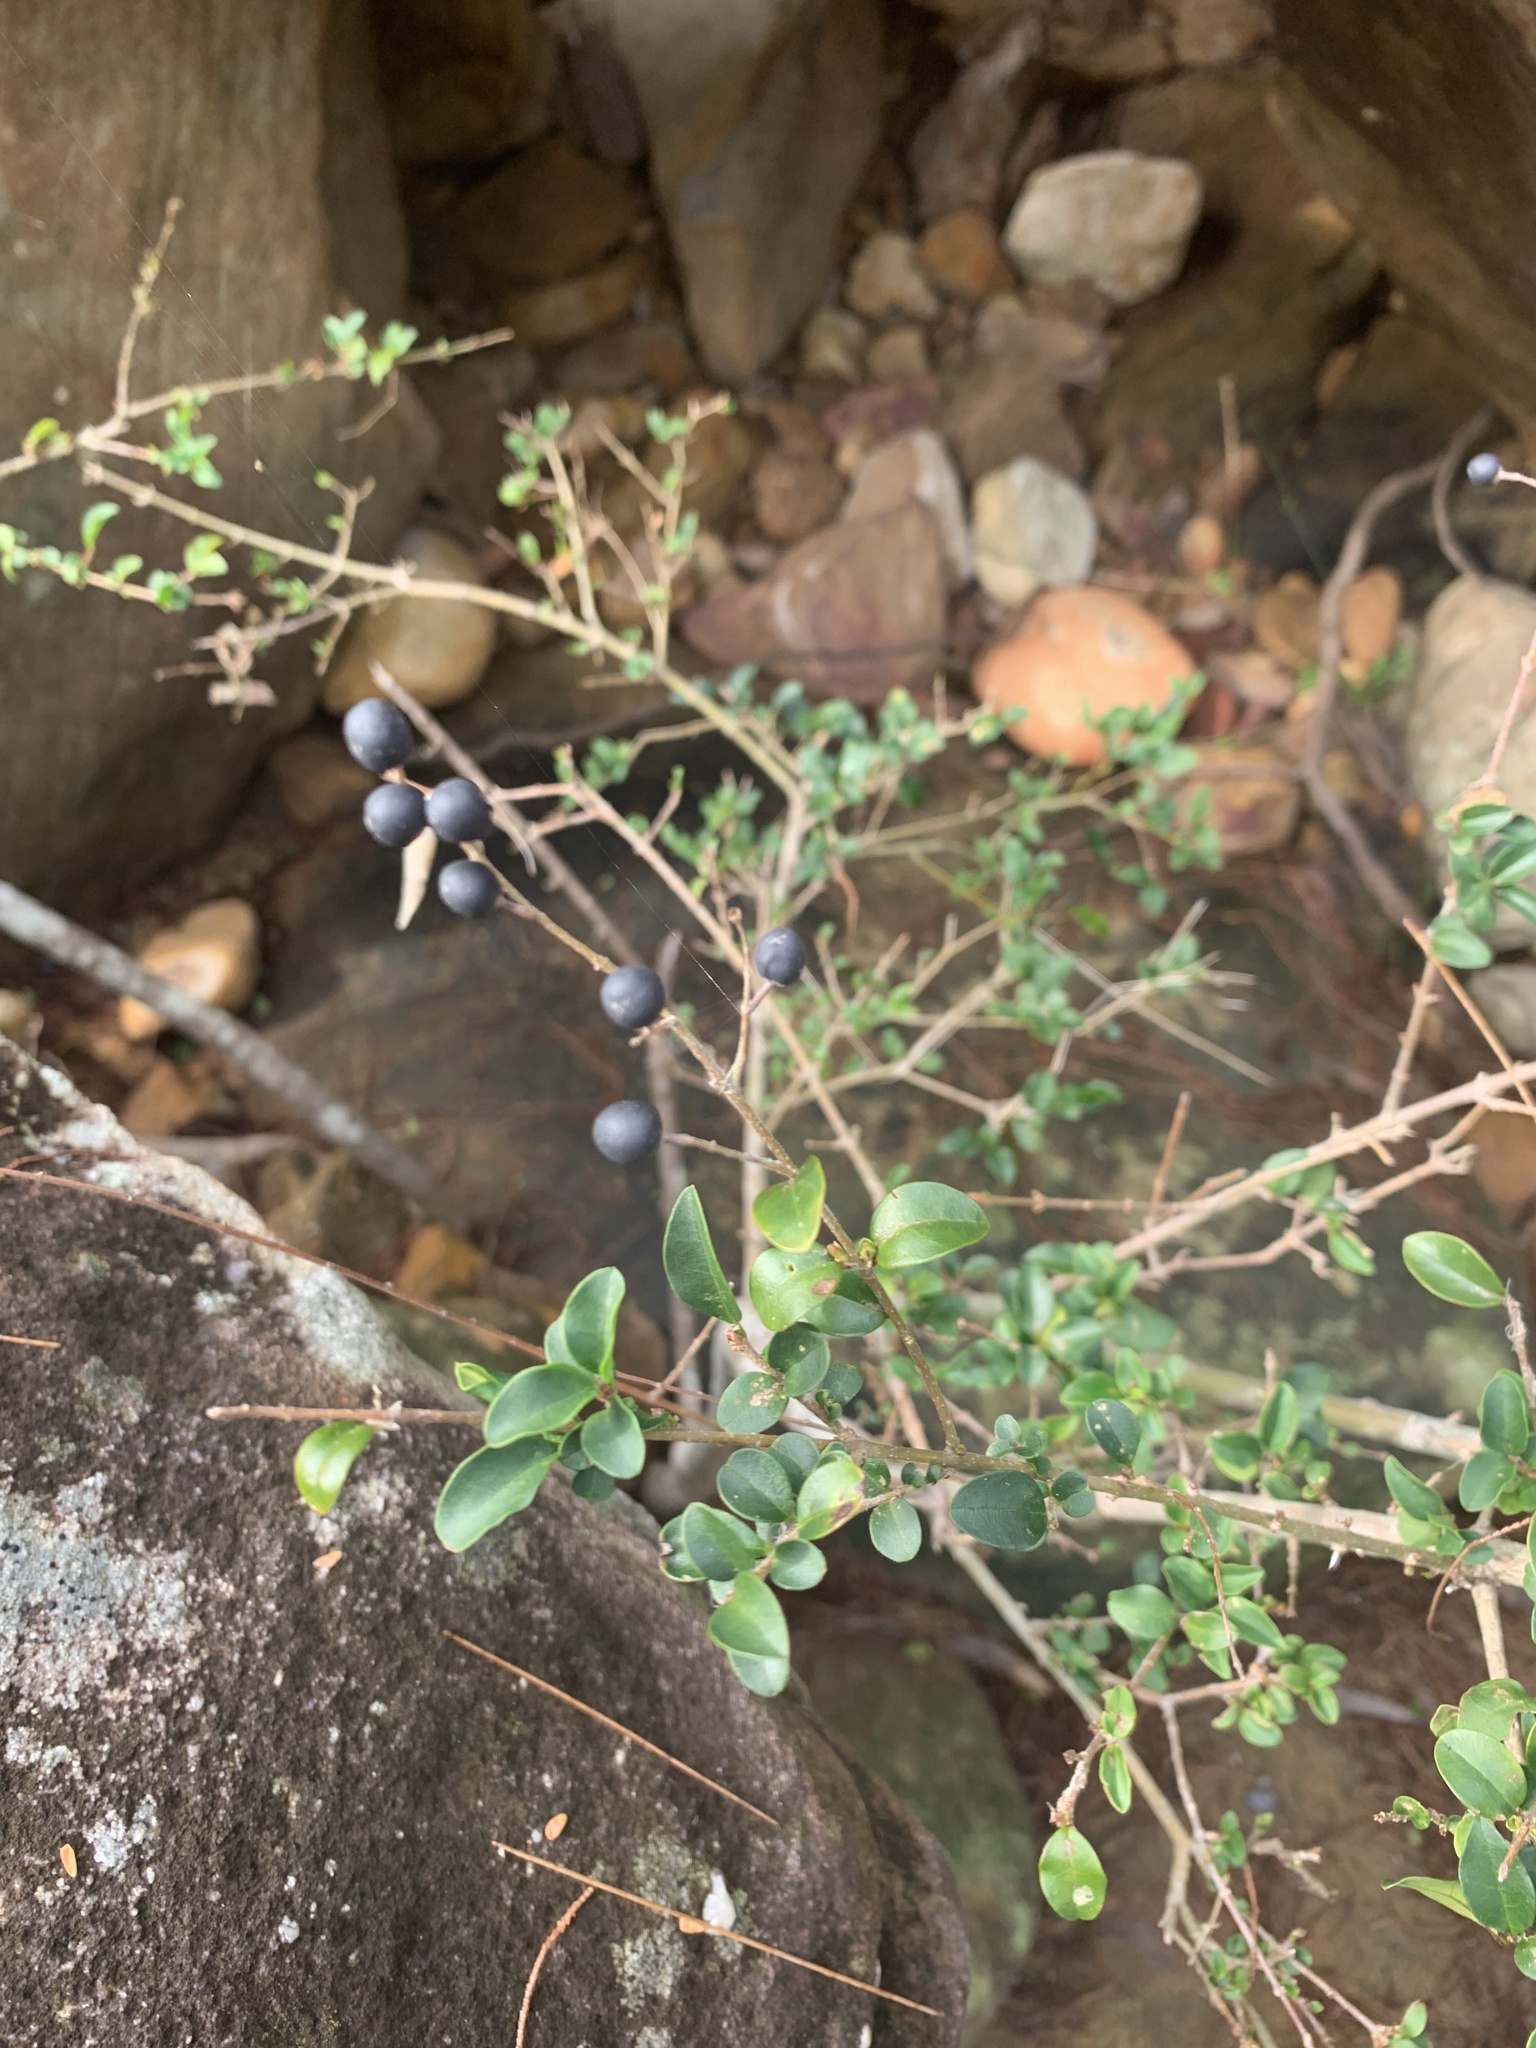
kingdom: Plantae
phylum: Tracheophyta
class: Magnoliopsida
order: Lamiales
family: Oleaceae
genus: Ligustrum
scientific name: Ligustrum sinense
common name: Chinese privet
